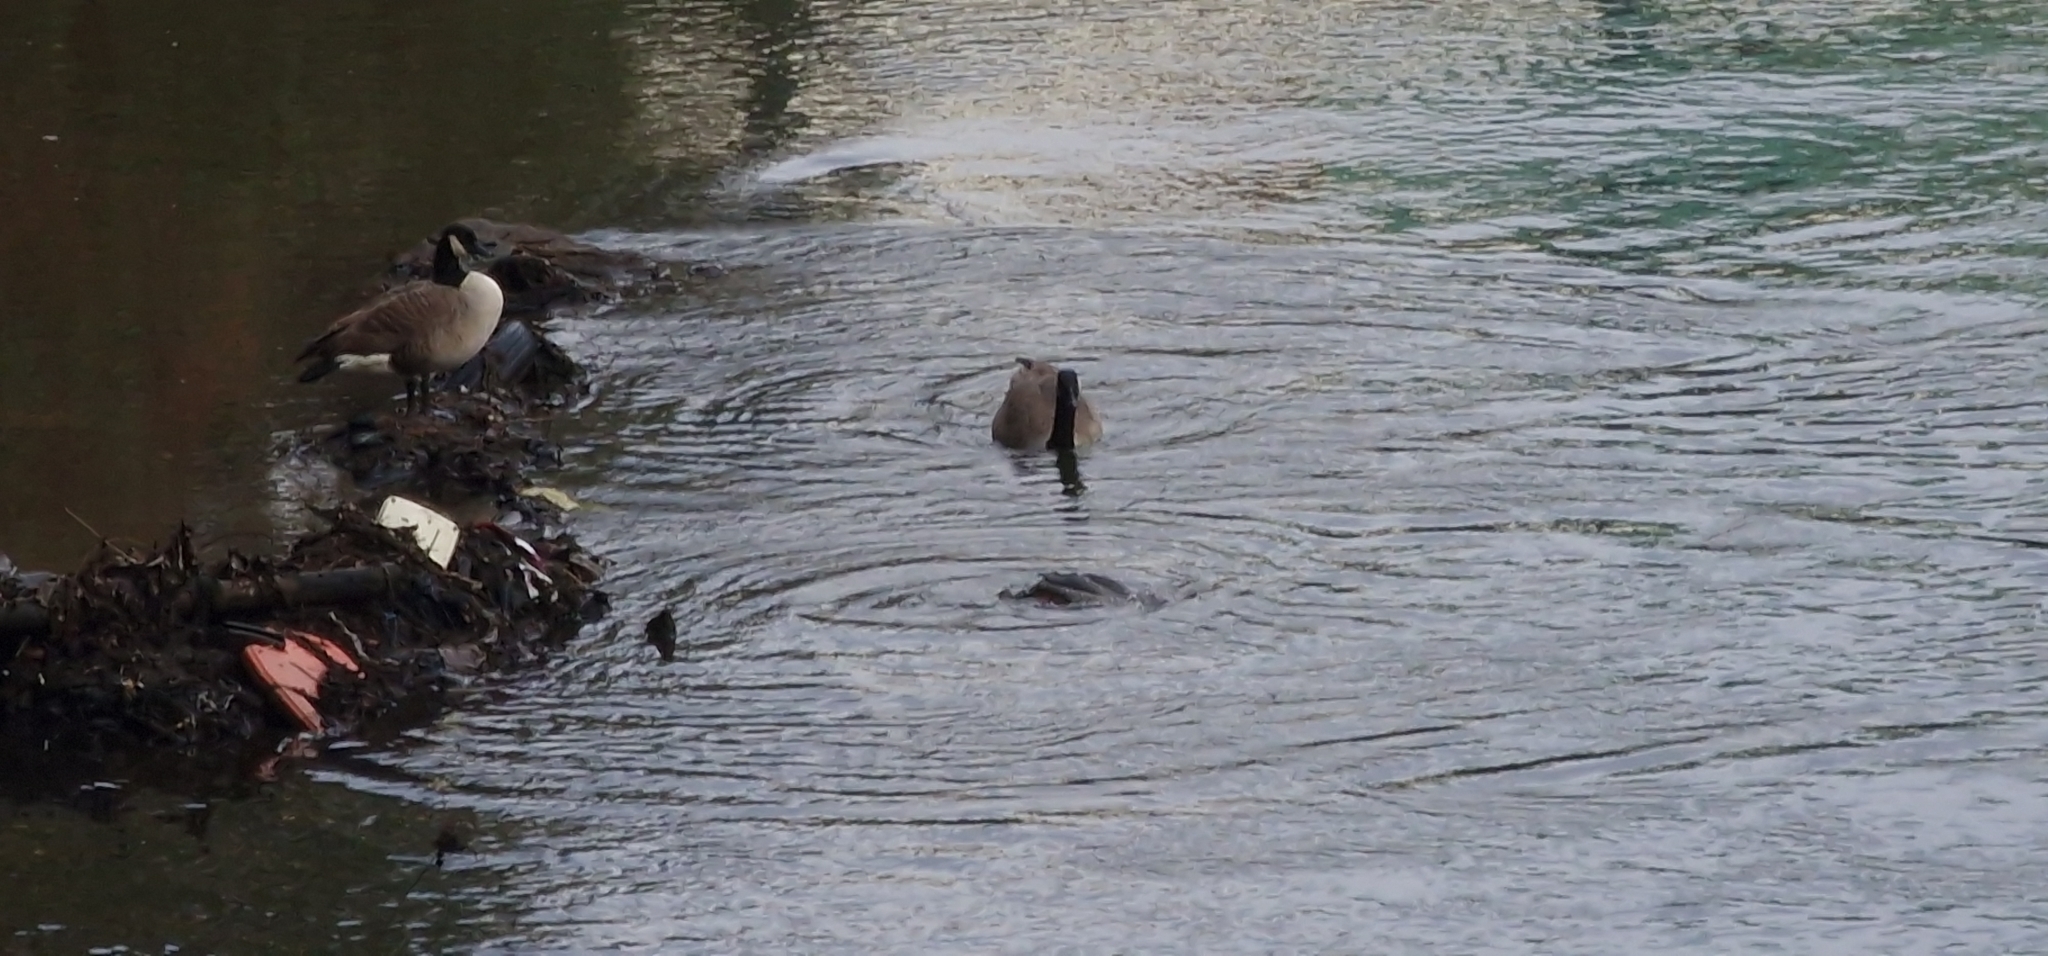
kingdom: Animalia
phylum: Chordata
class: Aves
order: Anseriformes
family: Anatidae
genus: Mergus
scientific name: Mergus merganser
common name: Common merganser
